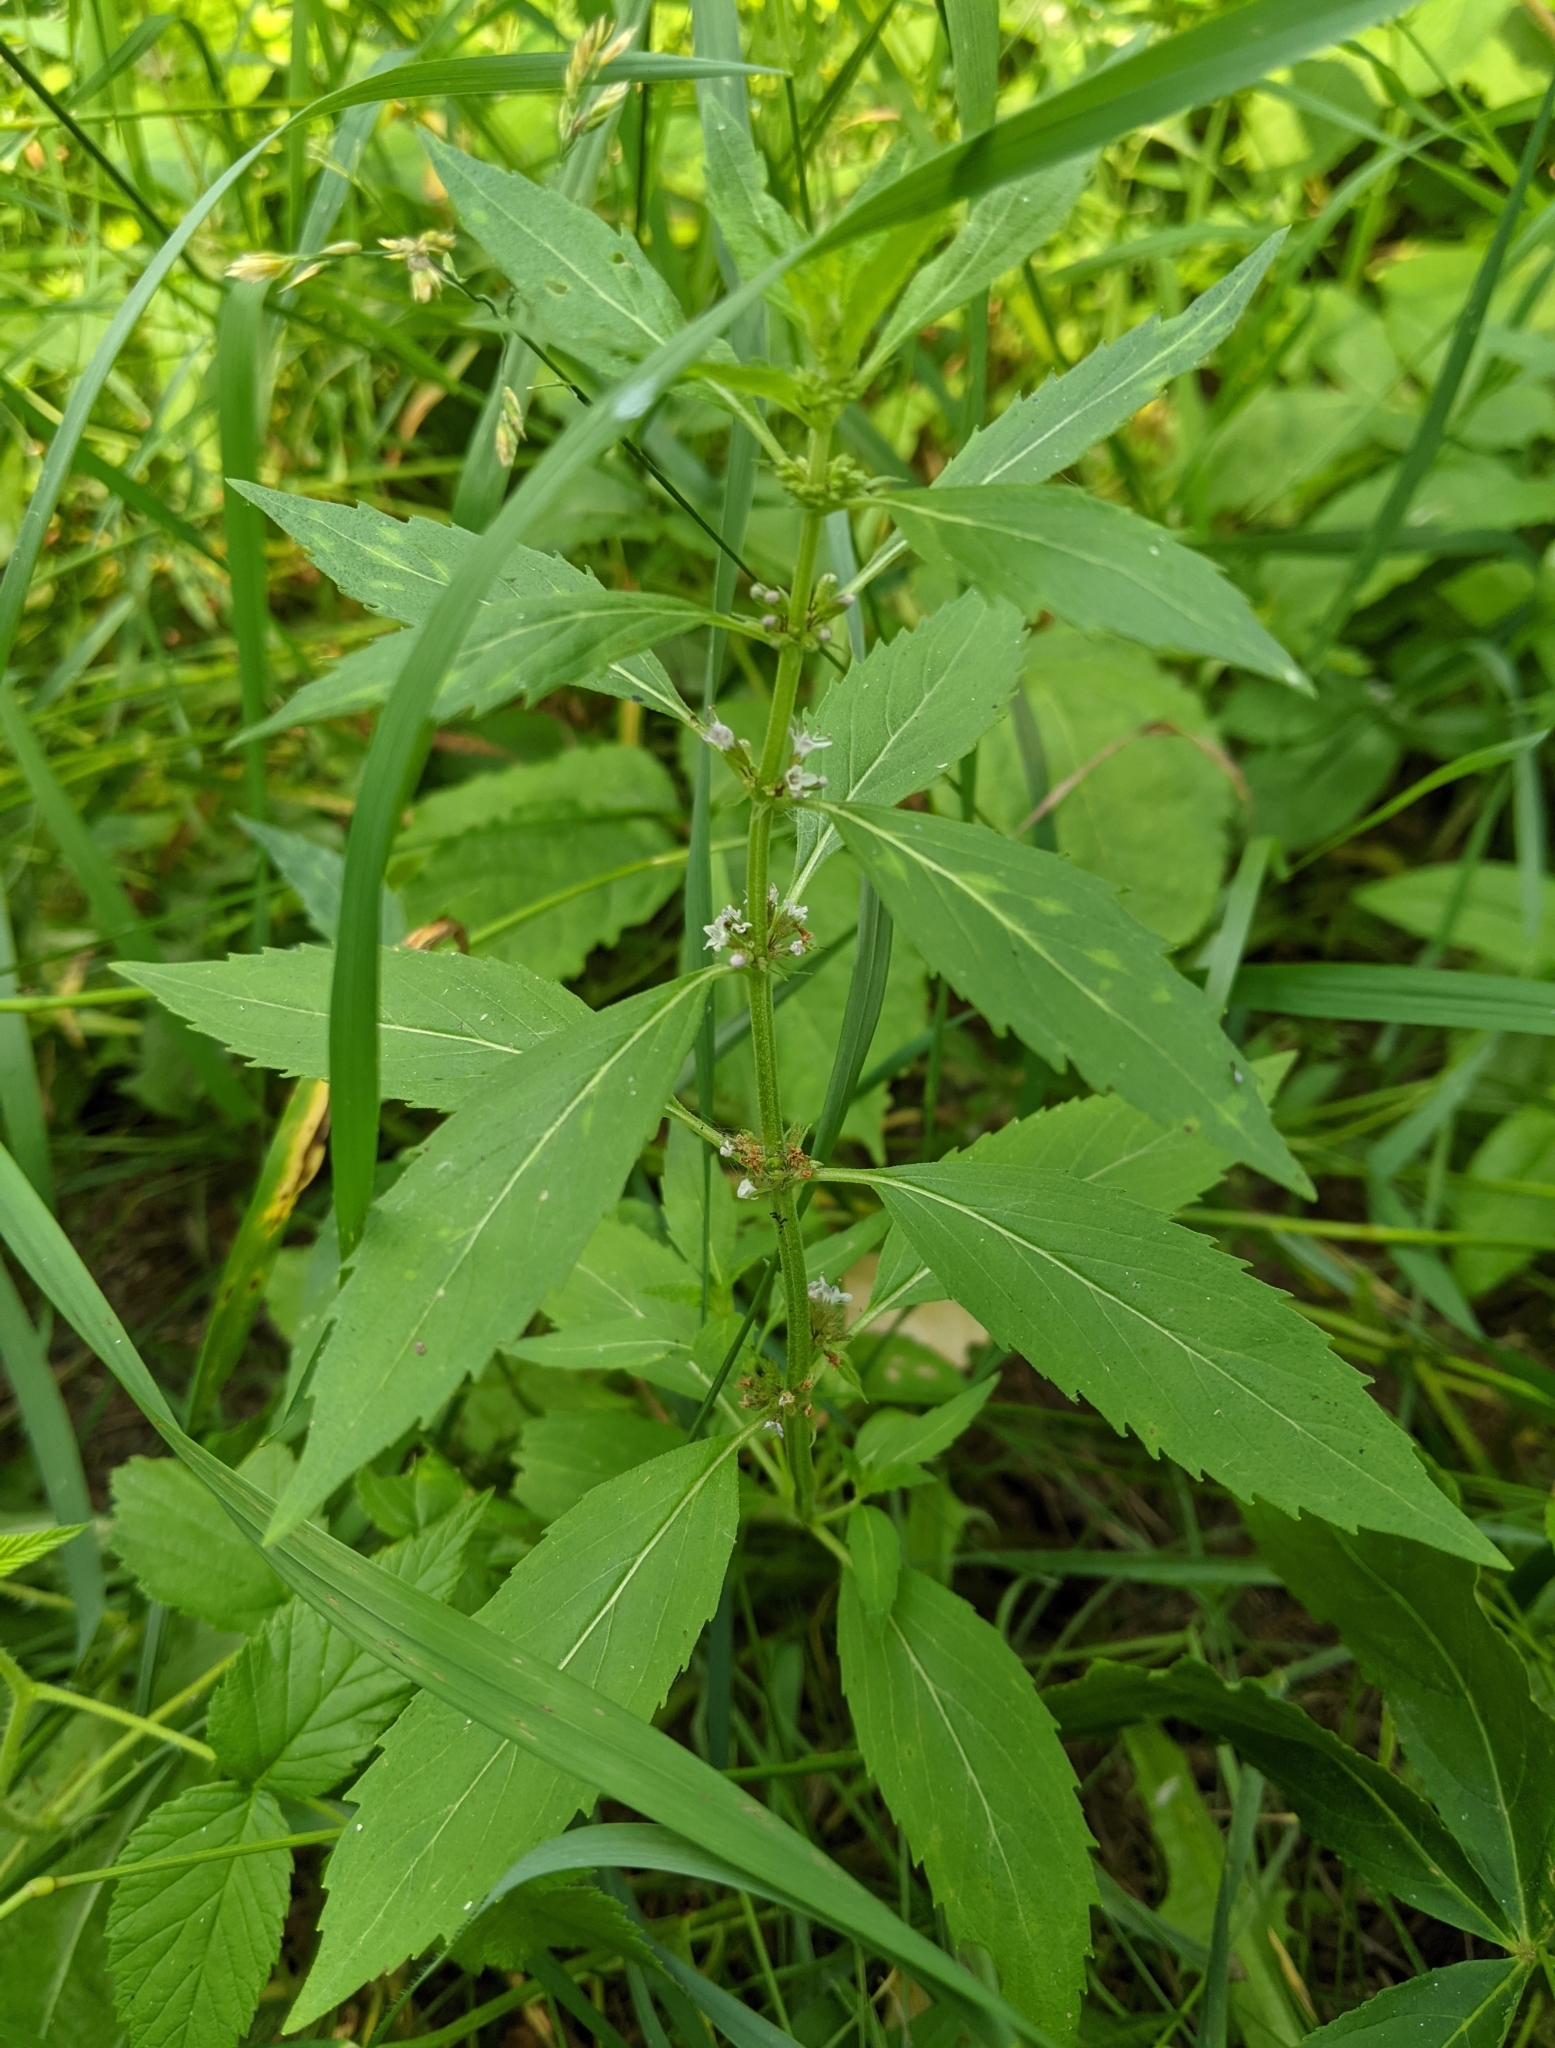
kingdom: Plantae
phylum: Tracheophyta
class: Magnoliopsida
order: Lamiales
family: Lamiaceae
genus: Mentha
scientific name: Mentha canadensis
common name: American corn mint
